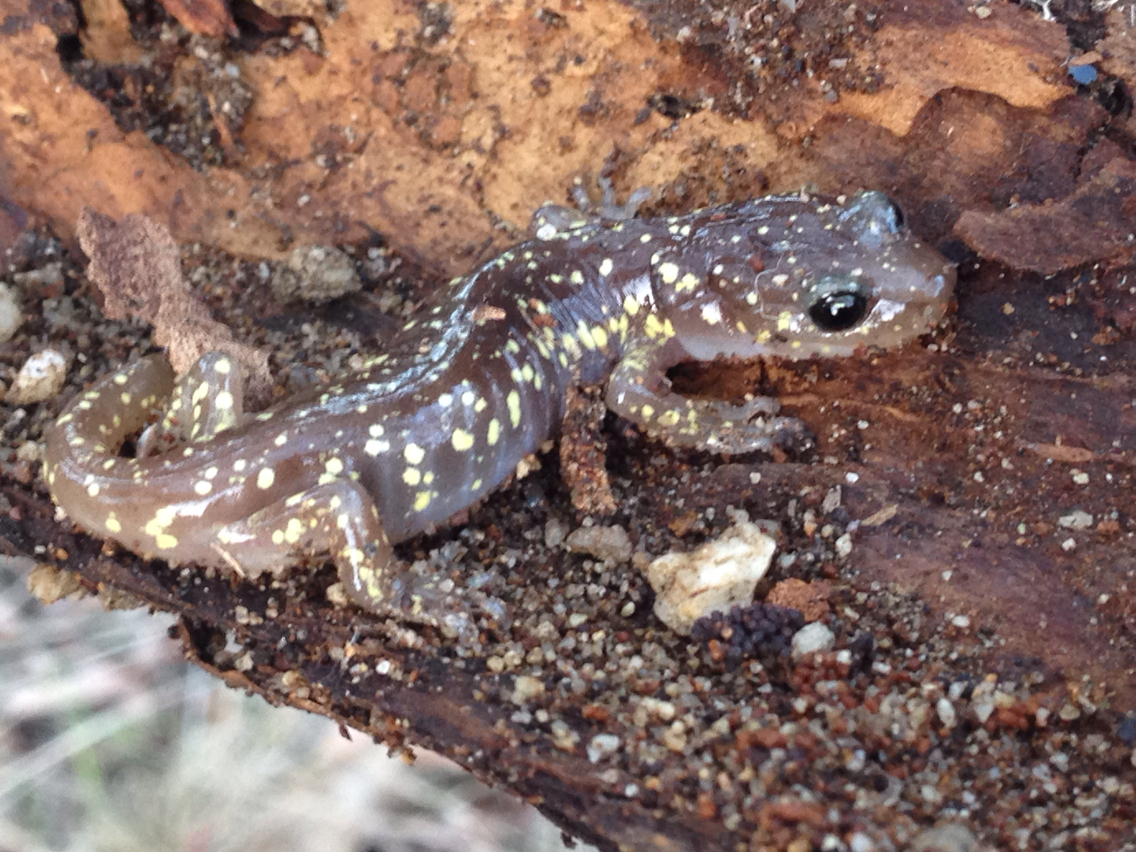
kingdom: Animalia
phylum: Chordata
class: Amphibia
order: Caudata
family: Plethodontidae
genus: Aneides
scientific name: Aneides lugubris
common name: Arboreal salamander
